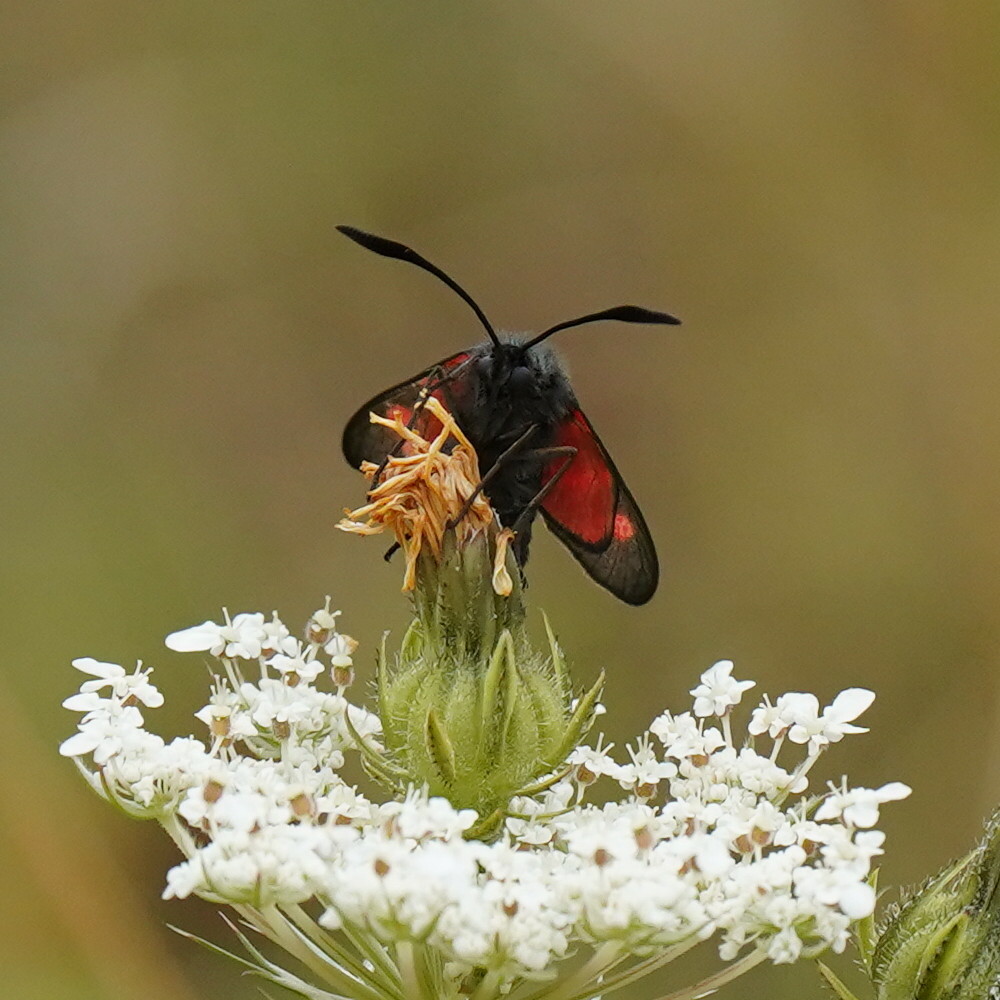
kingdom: Animalia
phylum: Arthropoda
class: Insecta
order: Lepidoptera
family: Zygaenidae
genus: Zygaena
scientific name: Zygaena filipendulae
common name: Six-spot burnet
